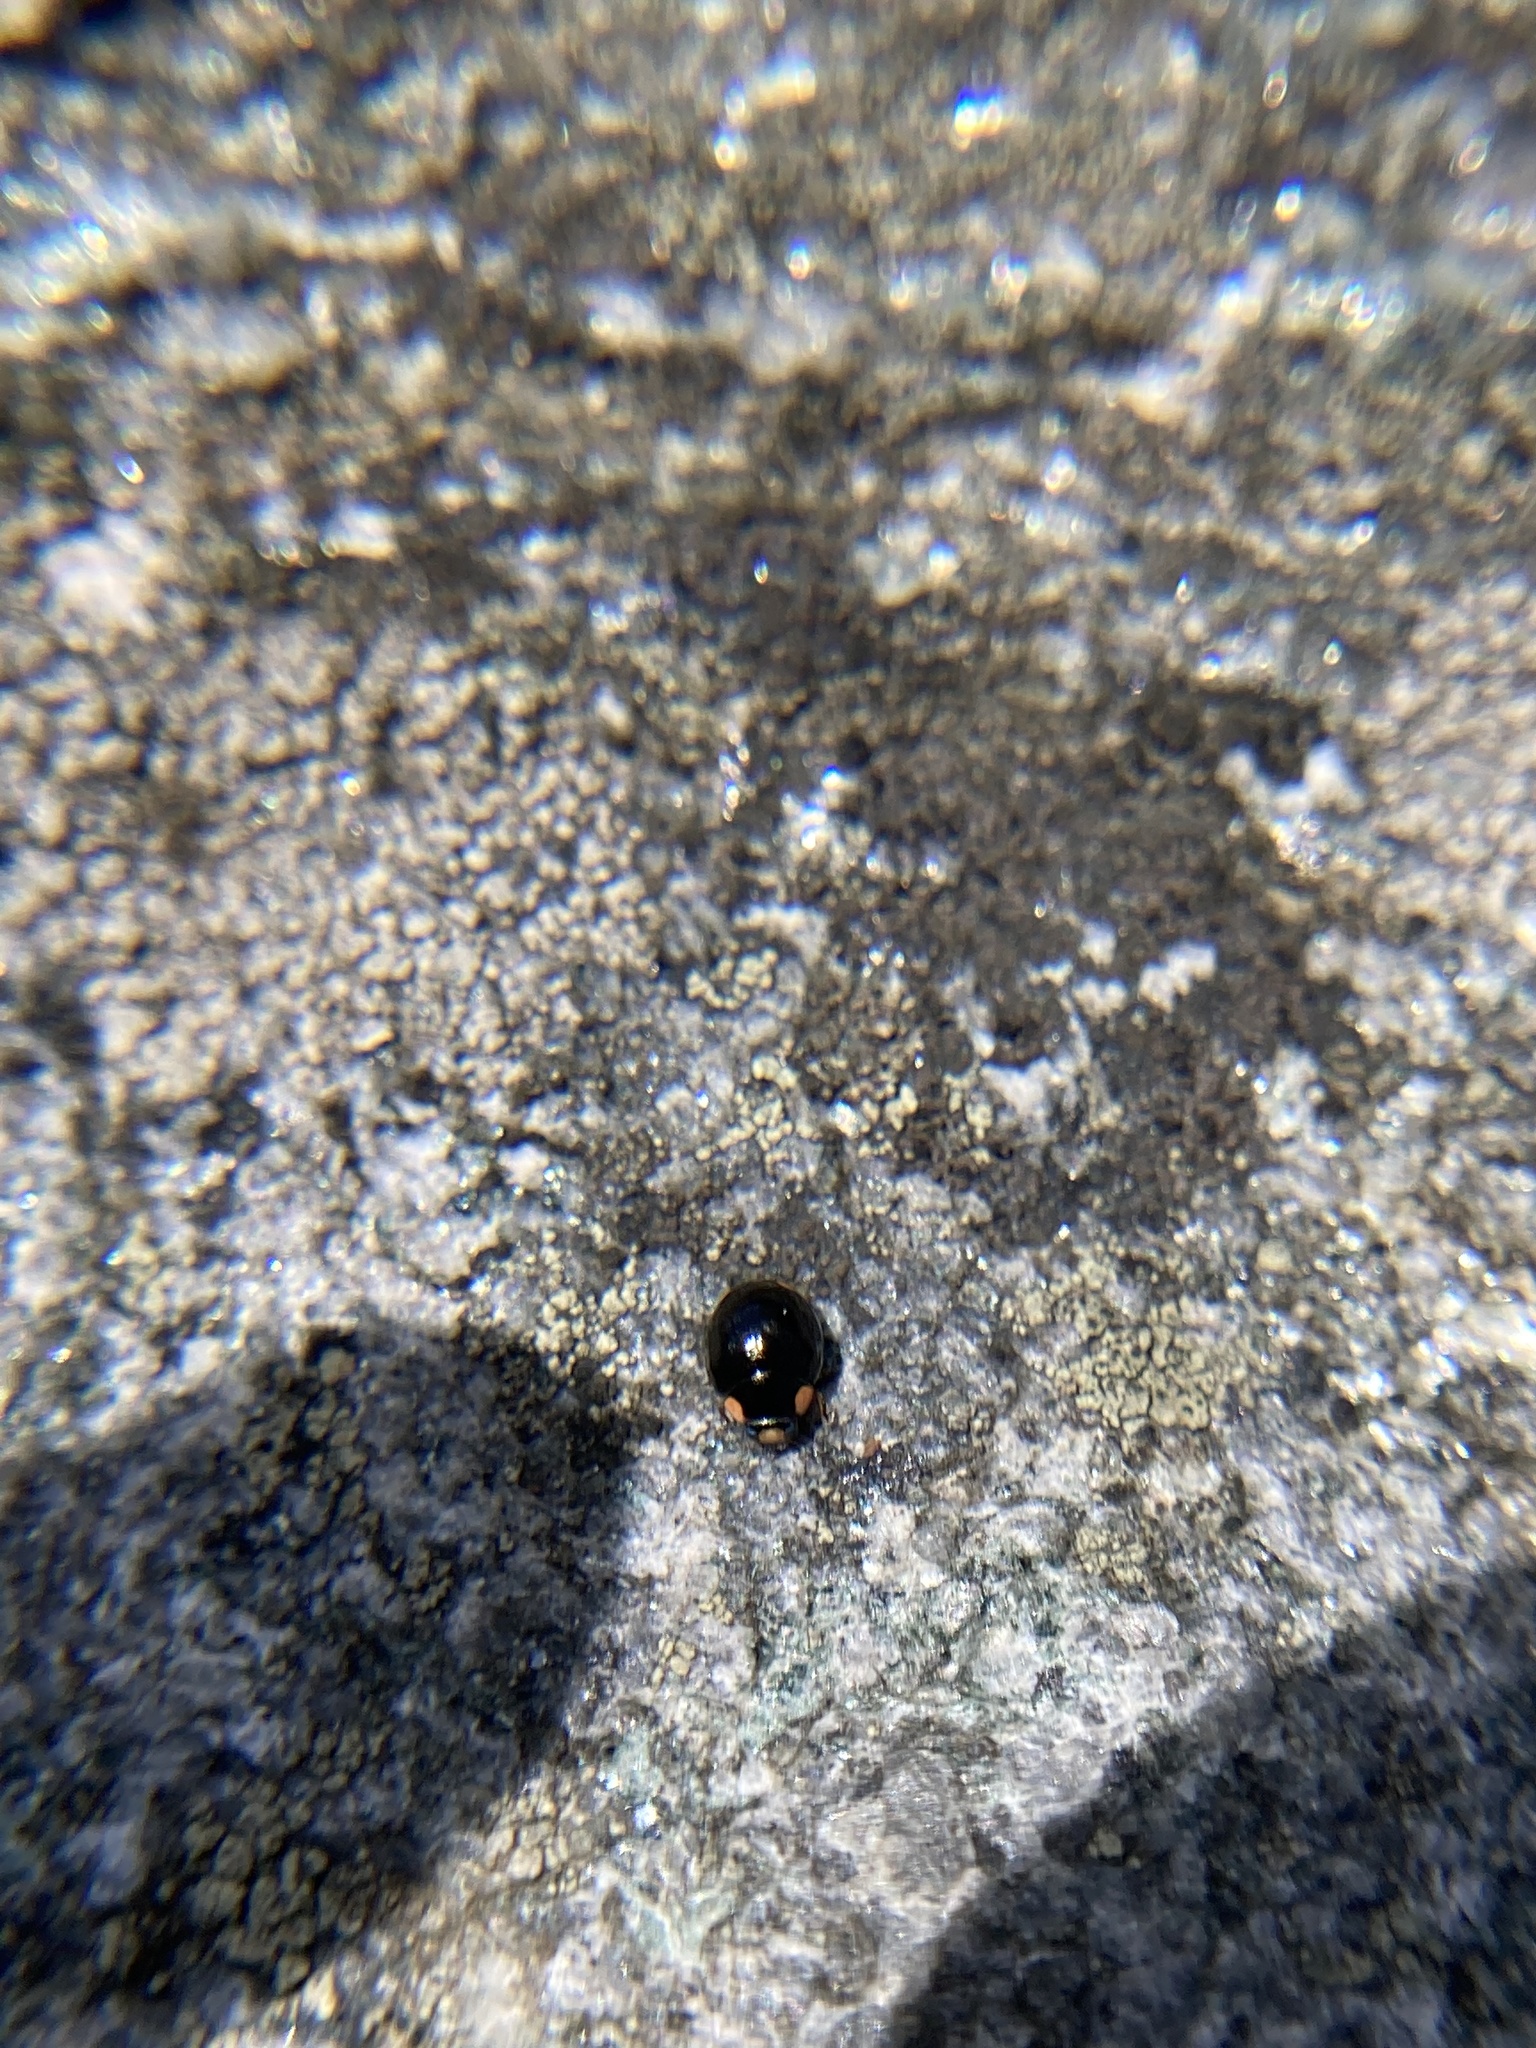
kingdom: Animalia
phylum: Arthropoda
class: Insecta
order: Coleoptera
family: Coccinellidae
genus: Hyperaspis
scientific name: Hyperaspis bigeminata
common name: Bigeminate sigil lady beetle
